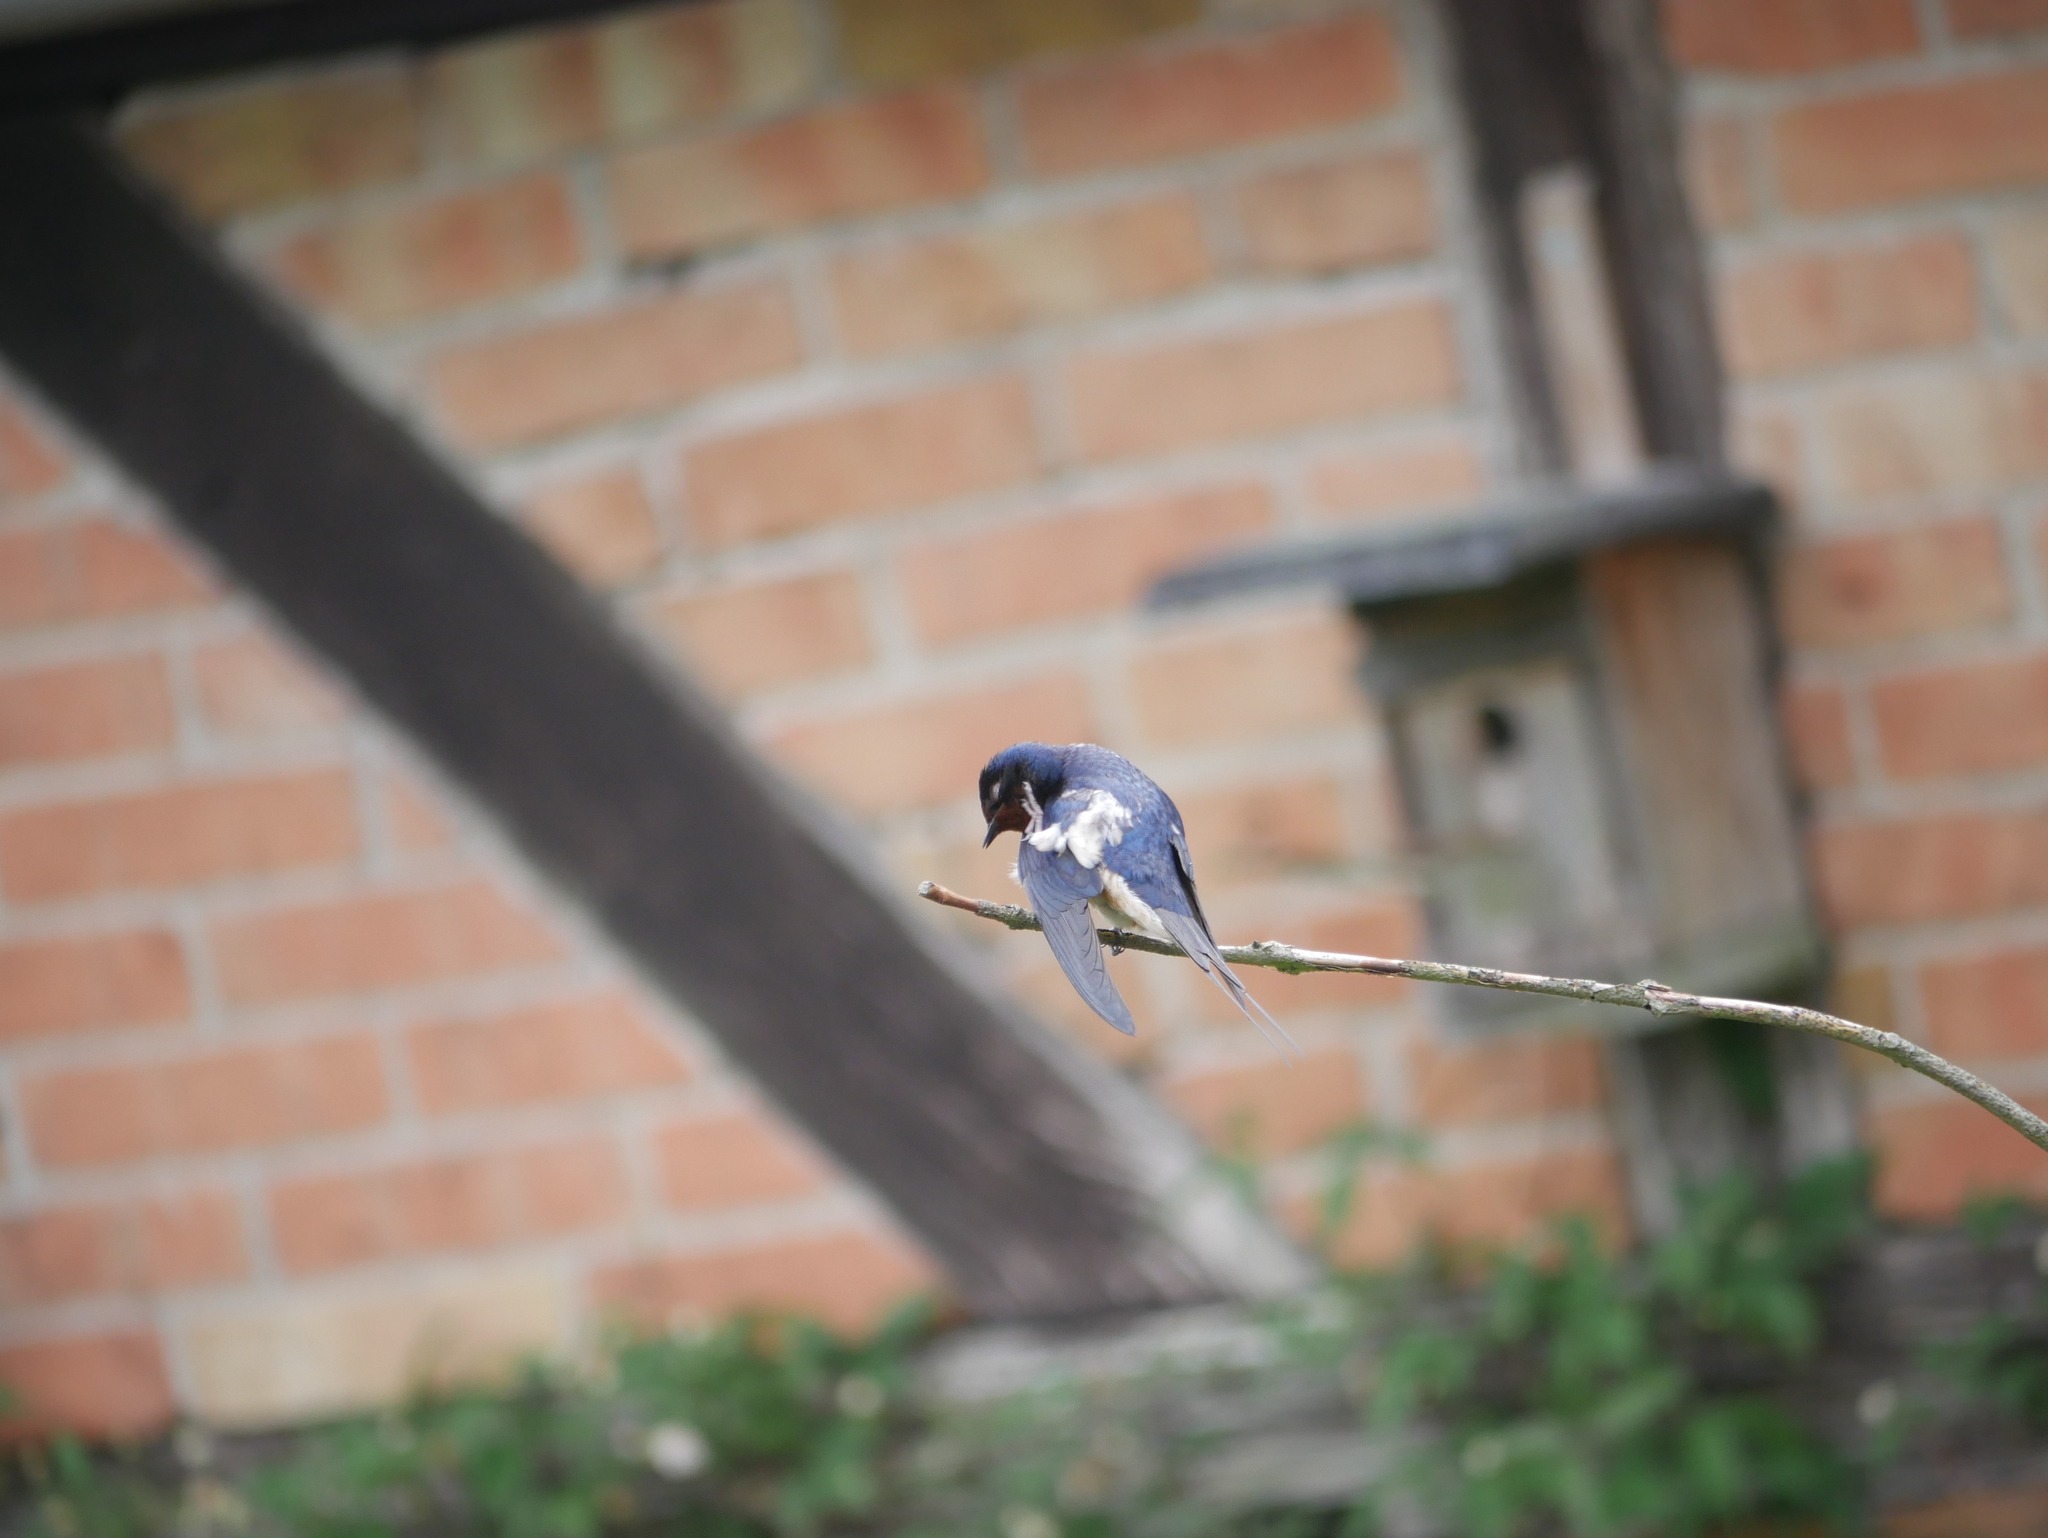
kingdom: Animalia
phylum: Chordata
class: Aves
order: Passeriformes
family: Hirundinidae
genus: Hirundo
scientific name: Hirundo rustica
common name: Barn swallow
